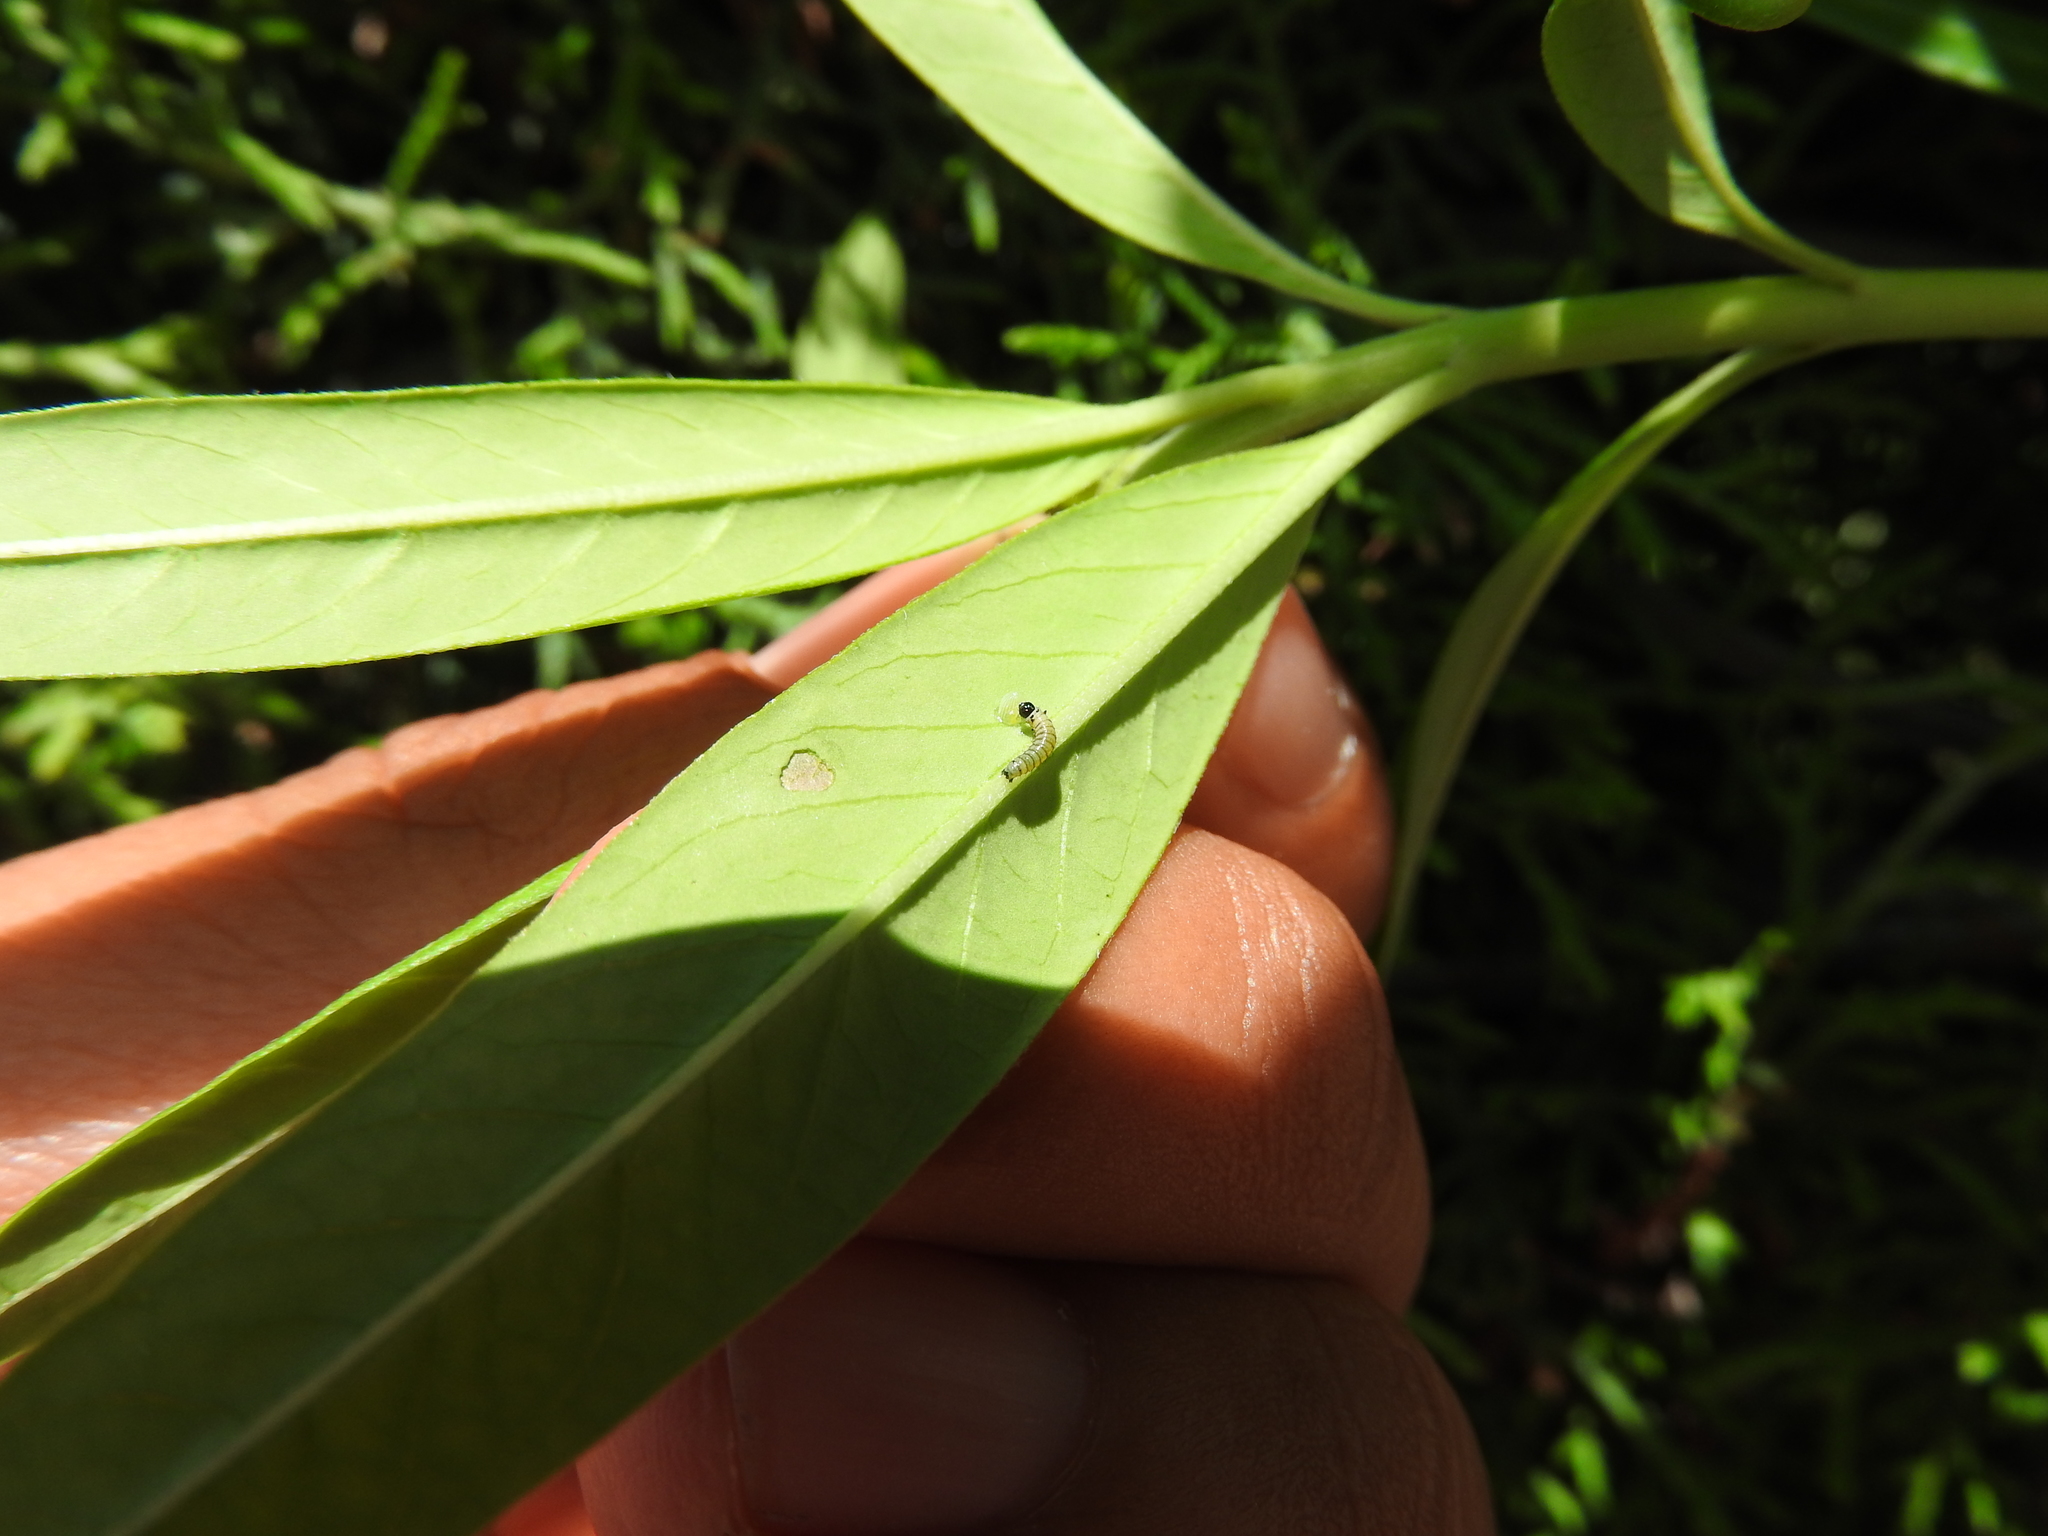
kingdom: Animalia
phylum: Arthropoda
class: Insecta
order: Lepidoptera
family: Nymphalidae
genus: Danaus
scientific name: Danaus plexippus
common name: Monarch
